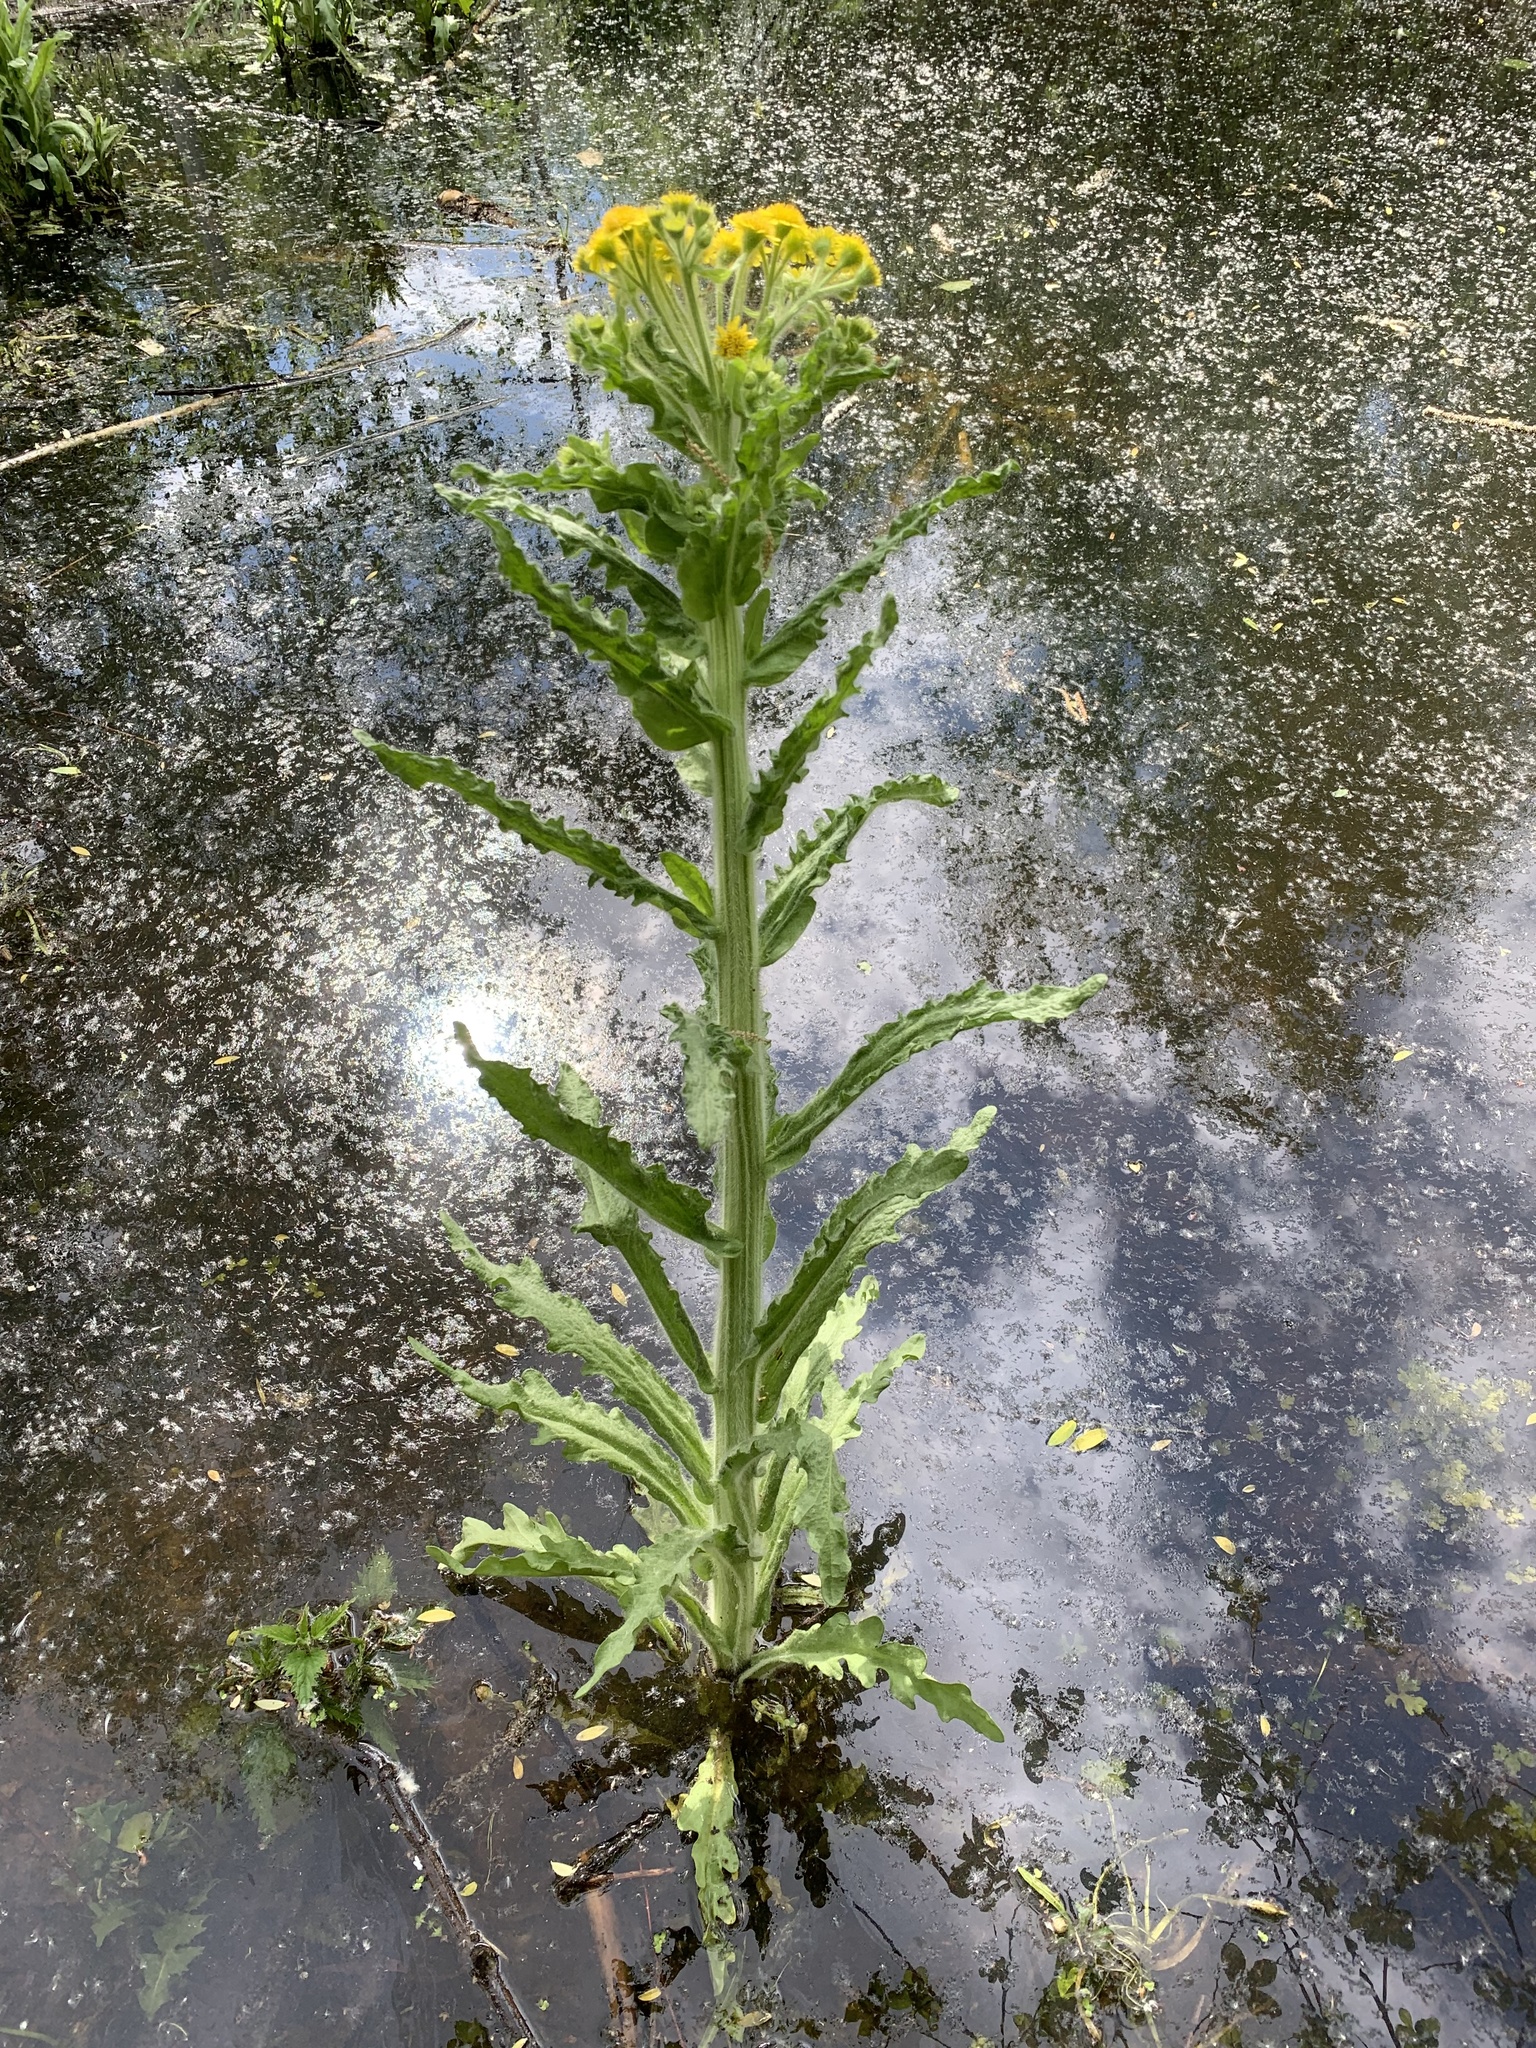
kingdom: Plantae
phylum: Tracheophyta
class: Magnoliopsida
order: Asterales
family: Asteraceae
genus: Tephroseris
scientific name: Tephroseris palustris
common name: Marsh fleawort
